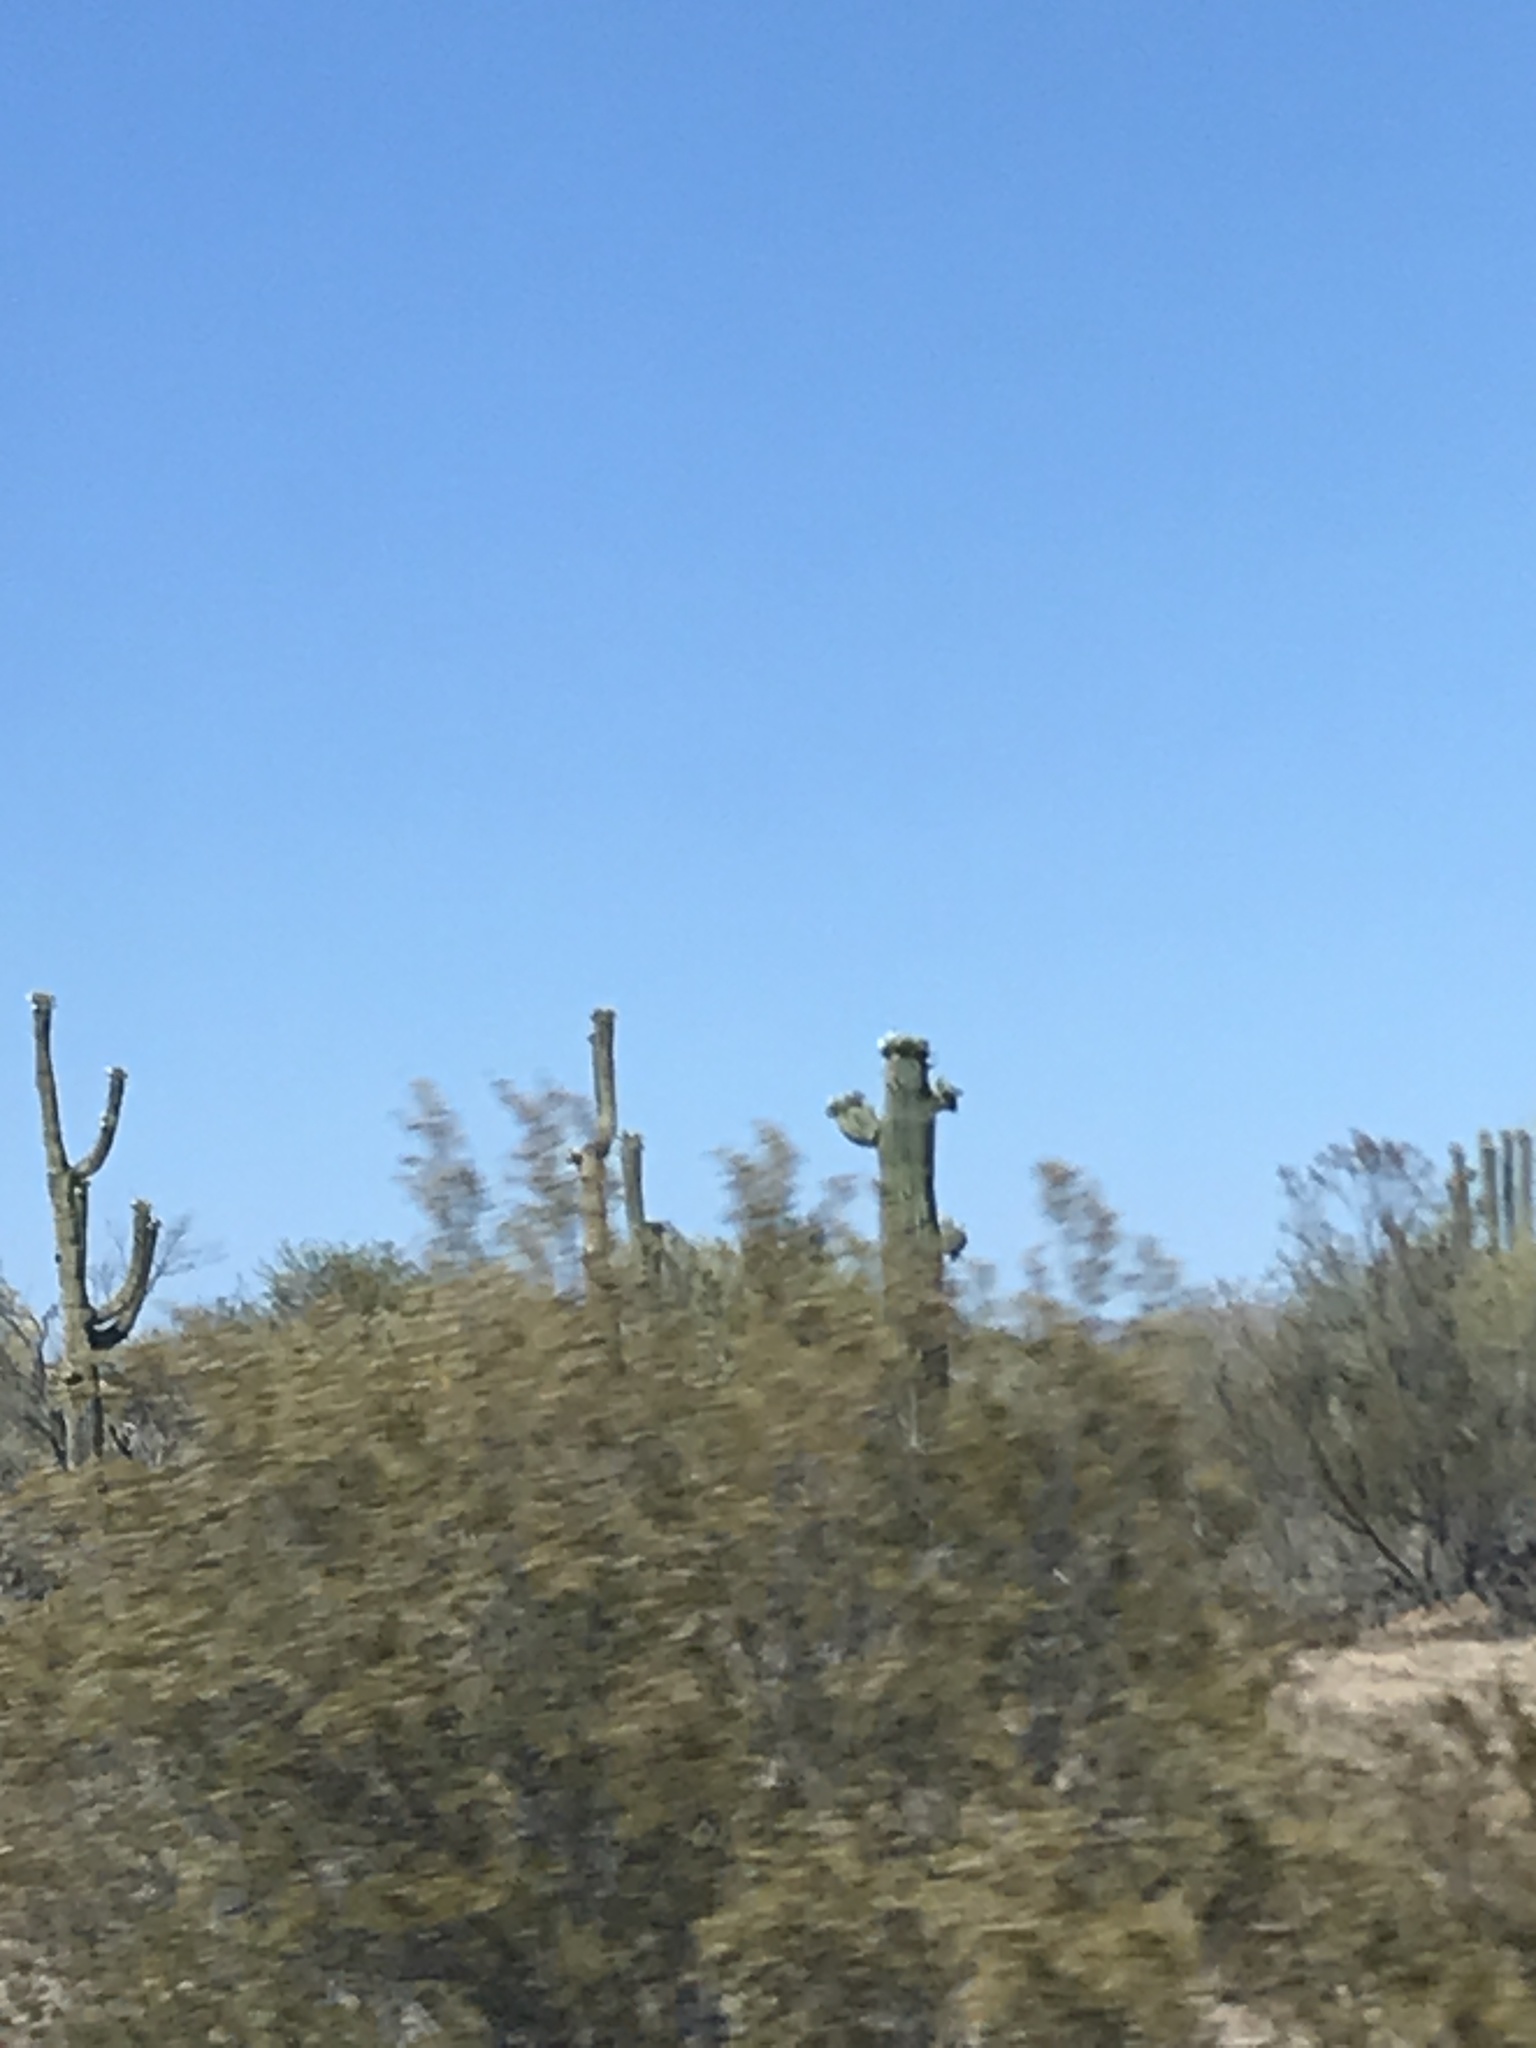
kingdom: Plantae
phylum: Tracheophyta
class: Magnoliopsida
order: Caryophyllales
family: Cactaceae
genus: Carnegiea
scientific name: Carnegiea gigantea
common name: Saguaro
